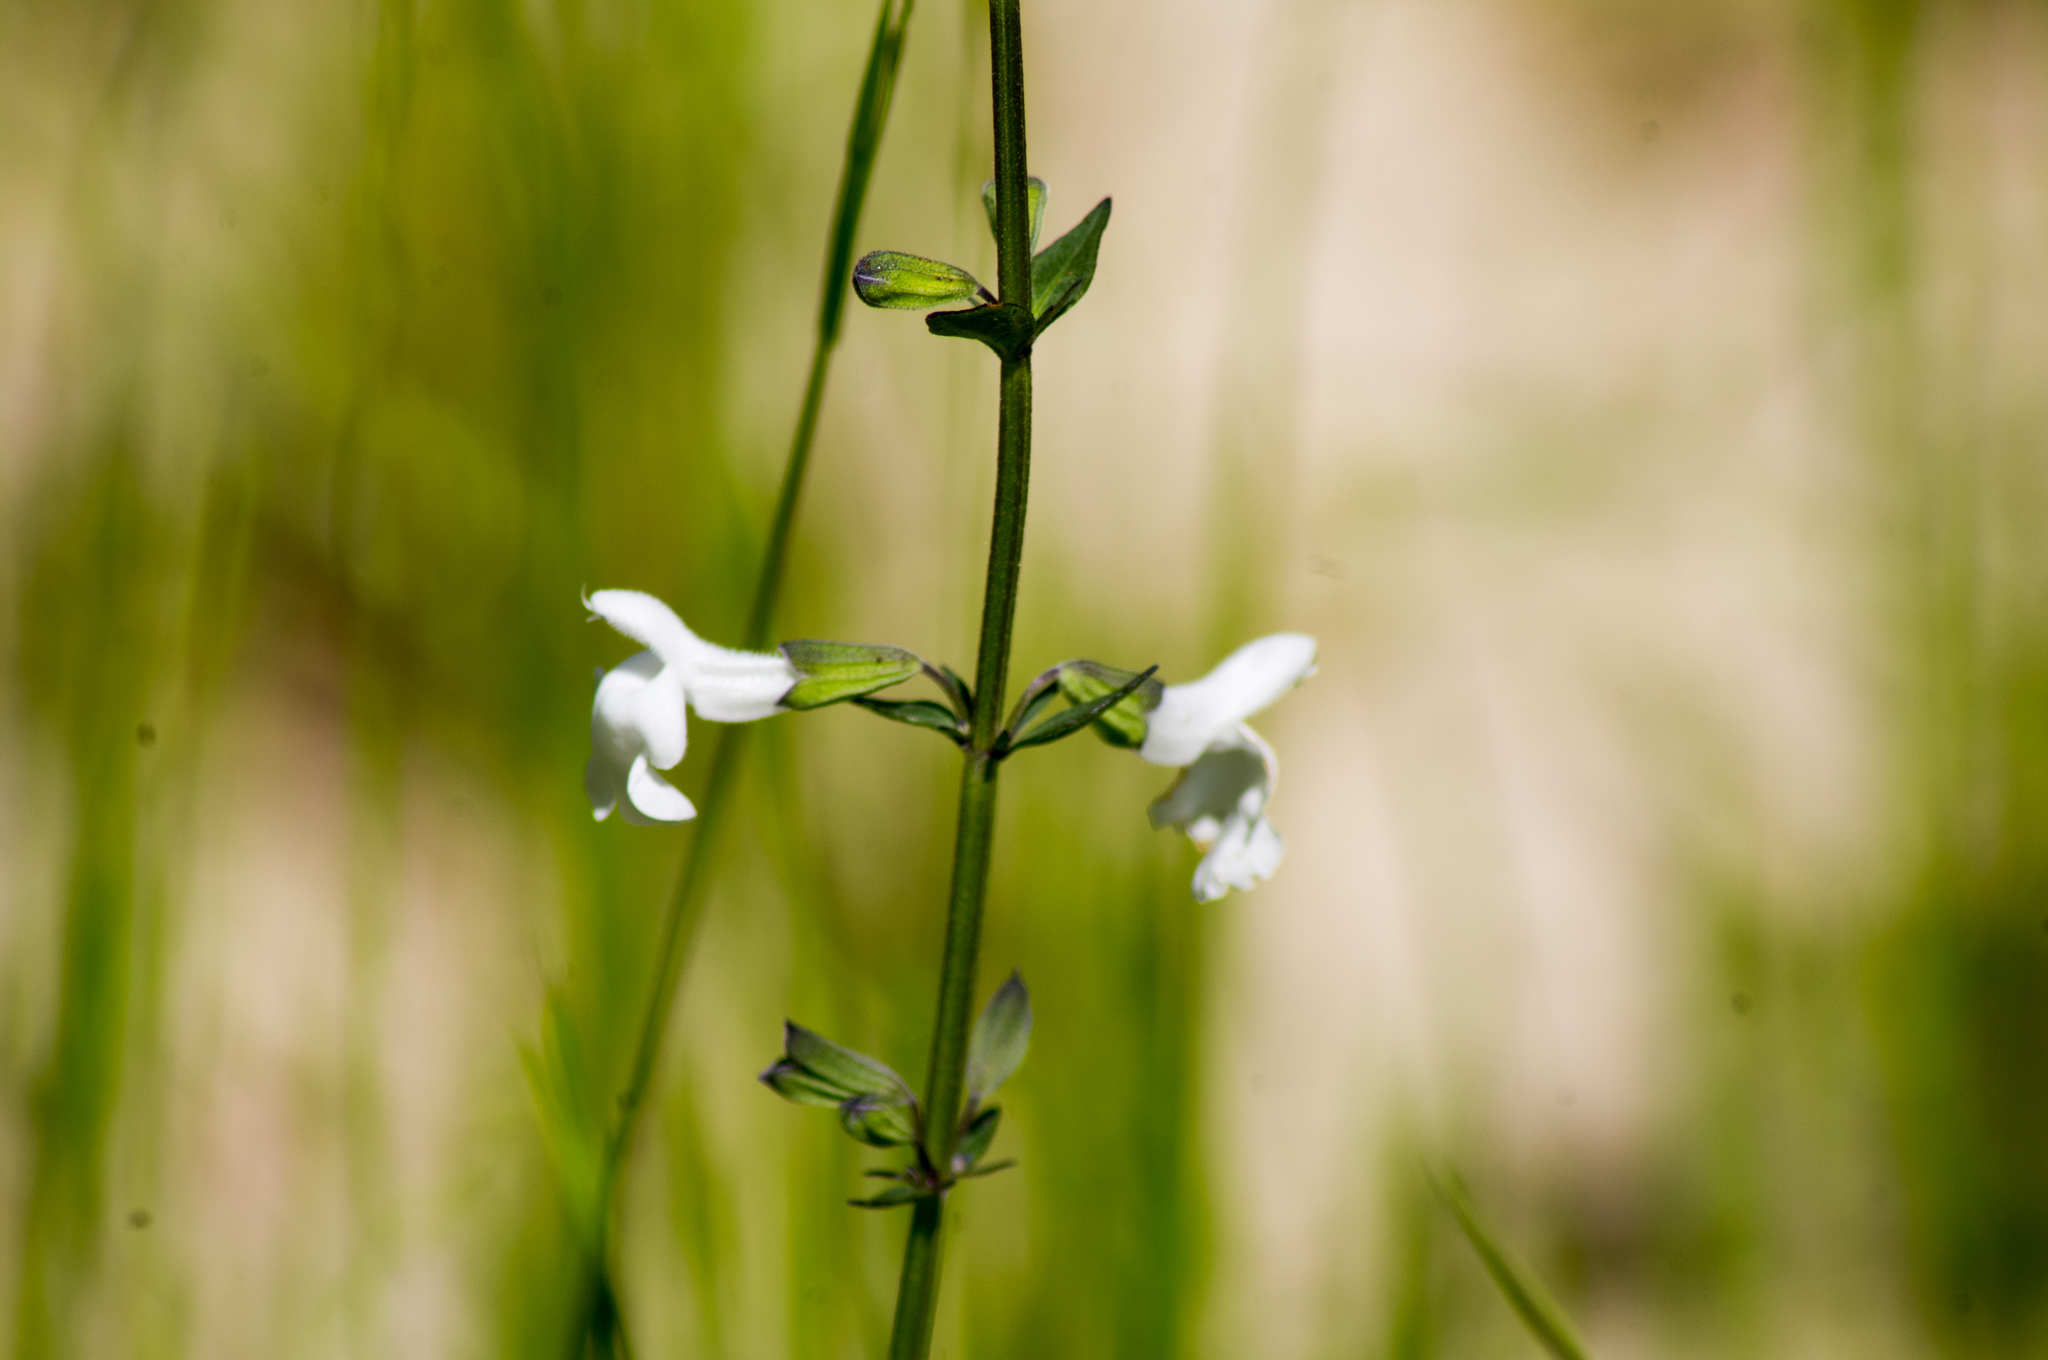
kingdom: Plantae
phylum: Tracheophyta
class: Magnoliopsida
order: Lamiales
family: Lamiaceae
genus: Salvia
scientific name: Salvia azurea
